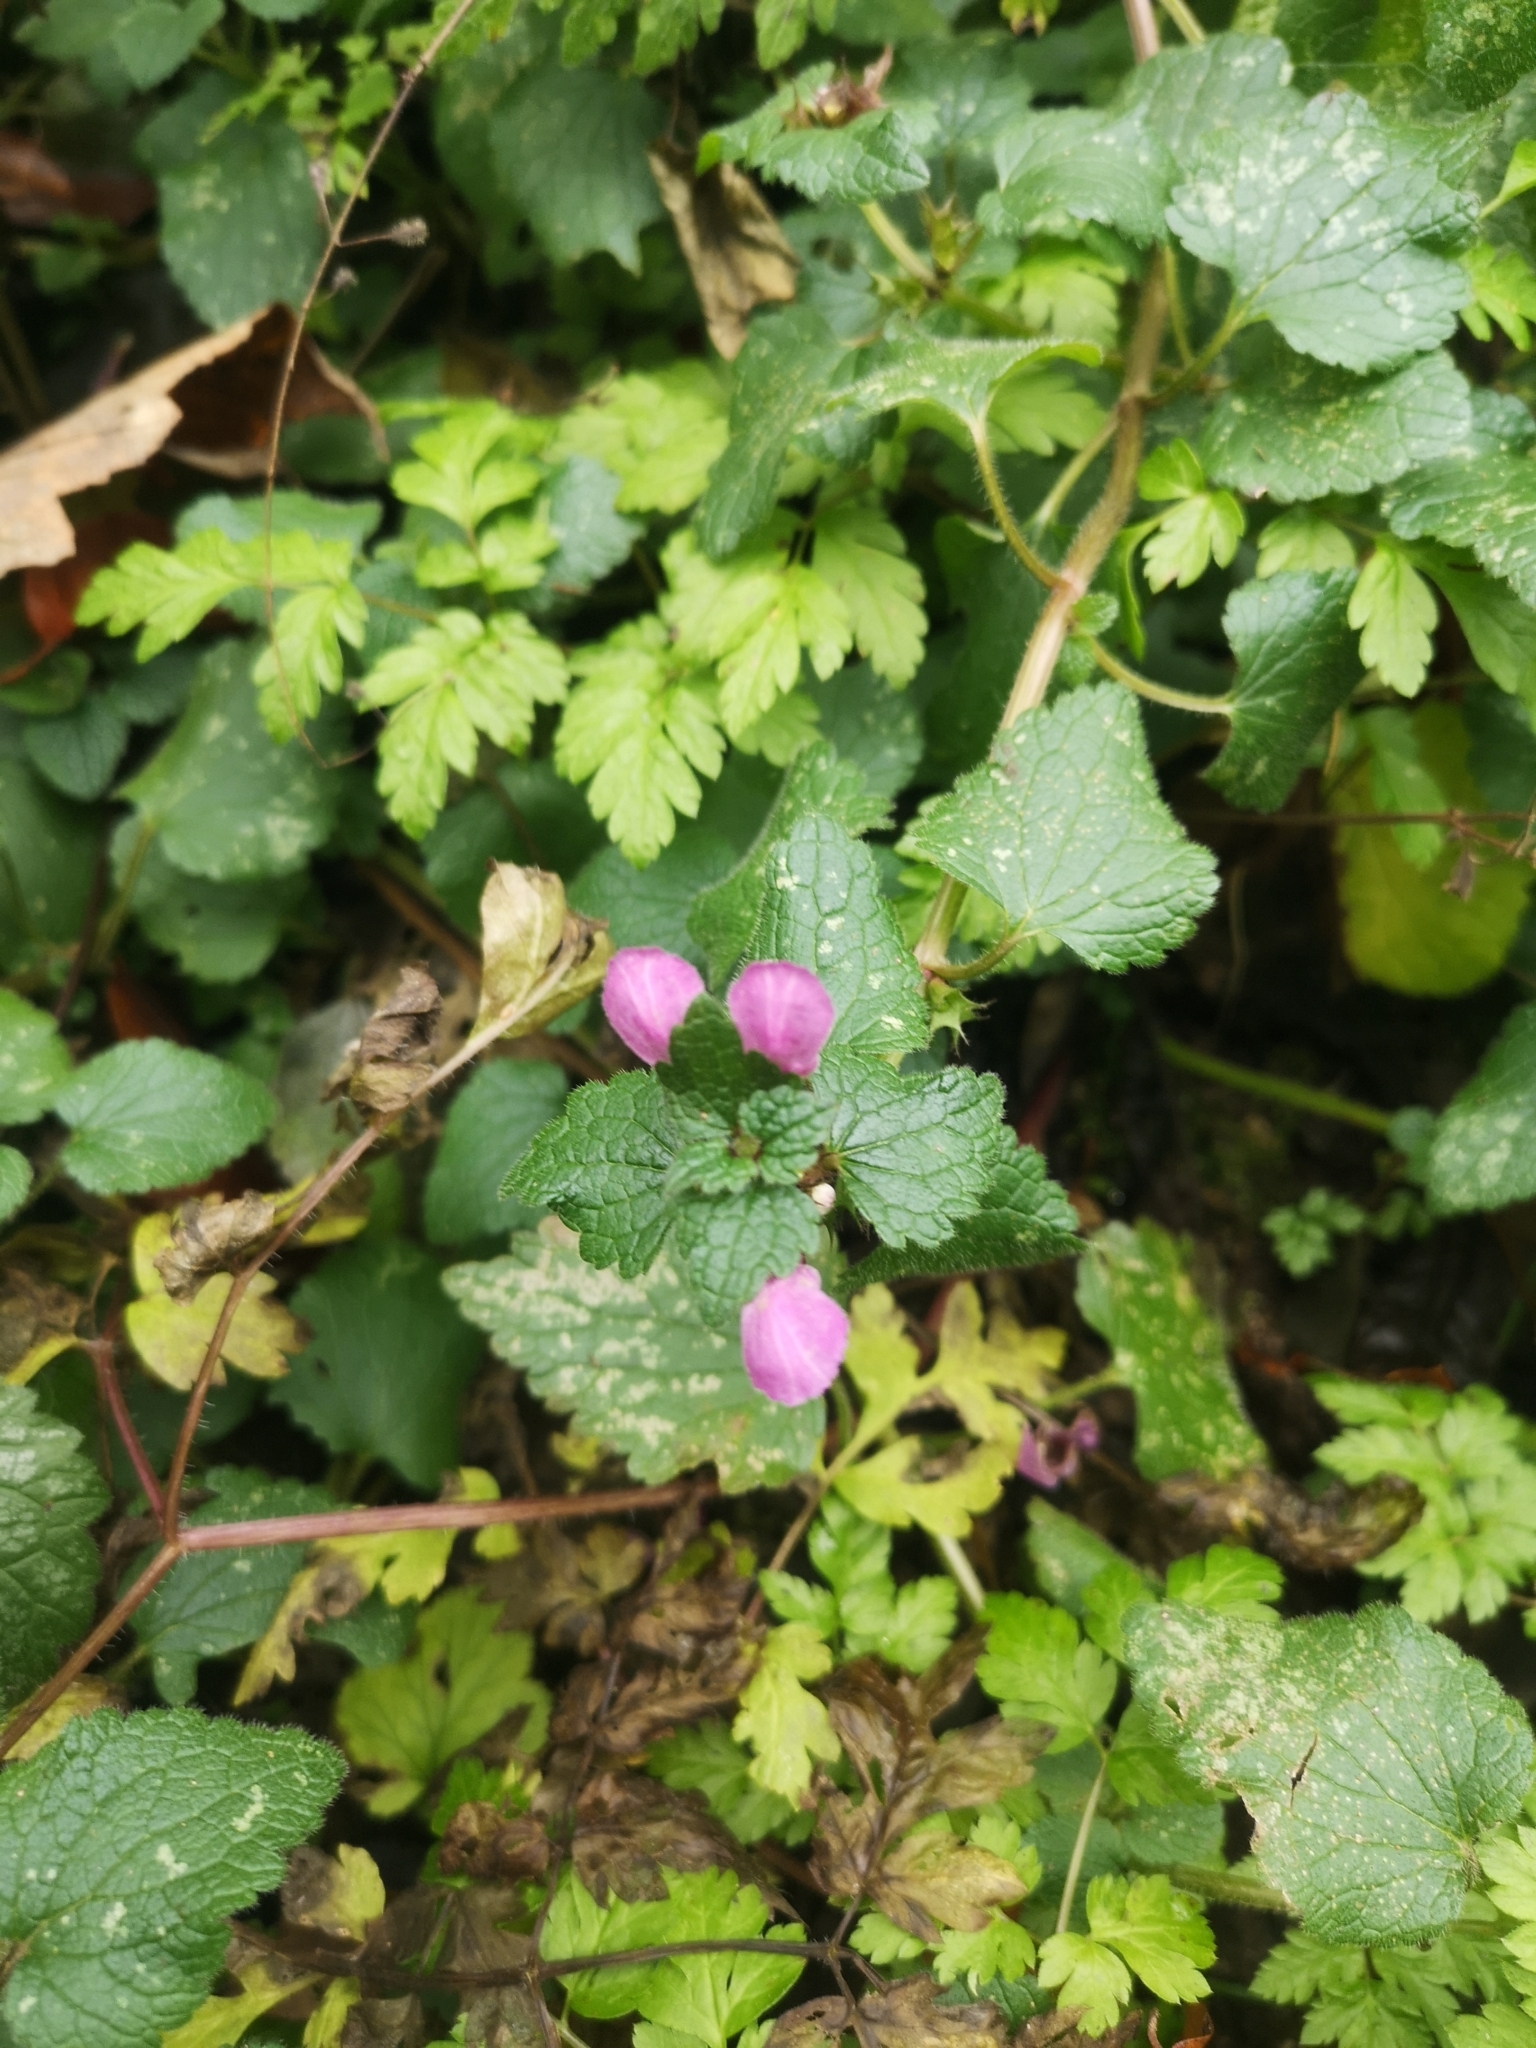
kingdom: Plantae
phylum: Tracheophyta
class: Magnoliopsida
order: Lamiales
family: Lamiaceae
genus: Lamium
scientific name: Lamium maculatum
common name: Spotted dead-nettle
